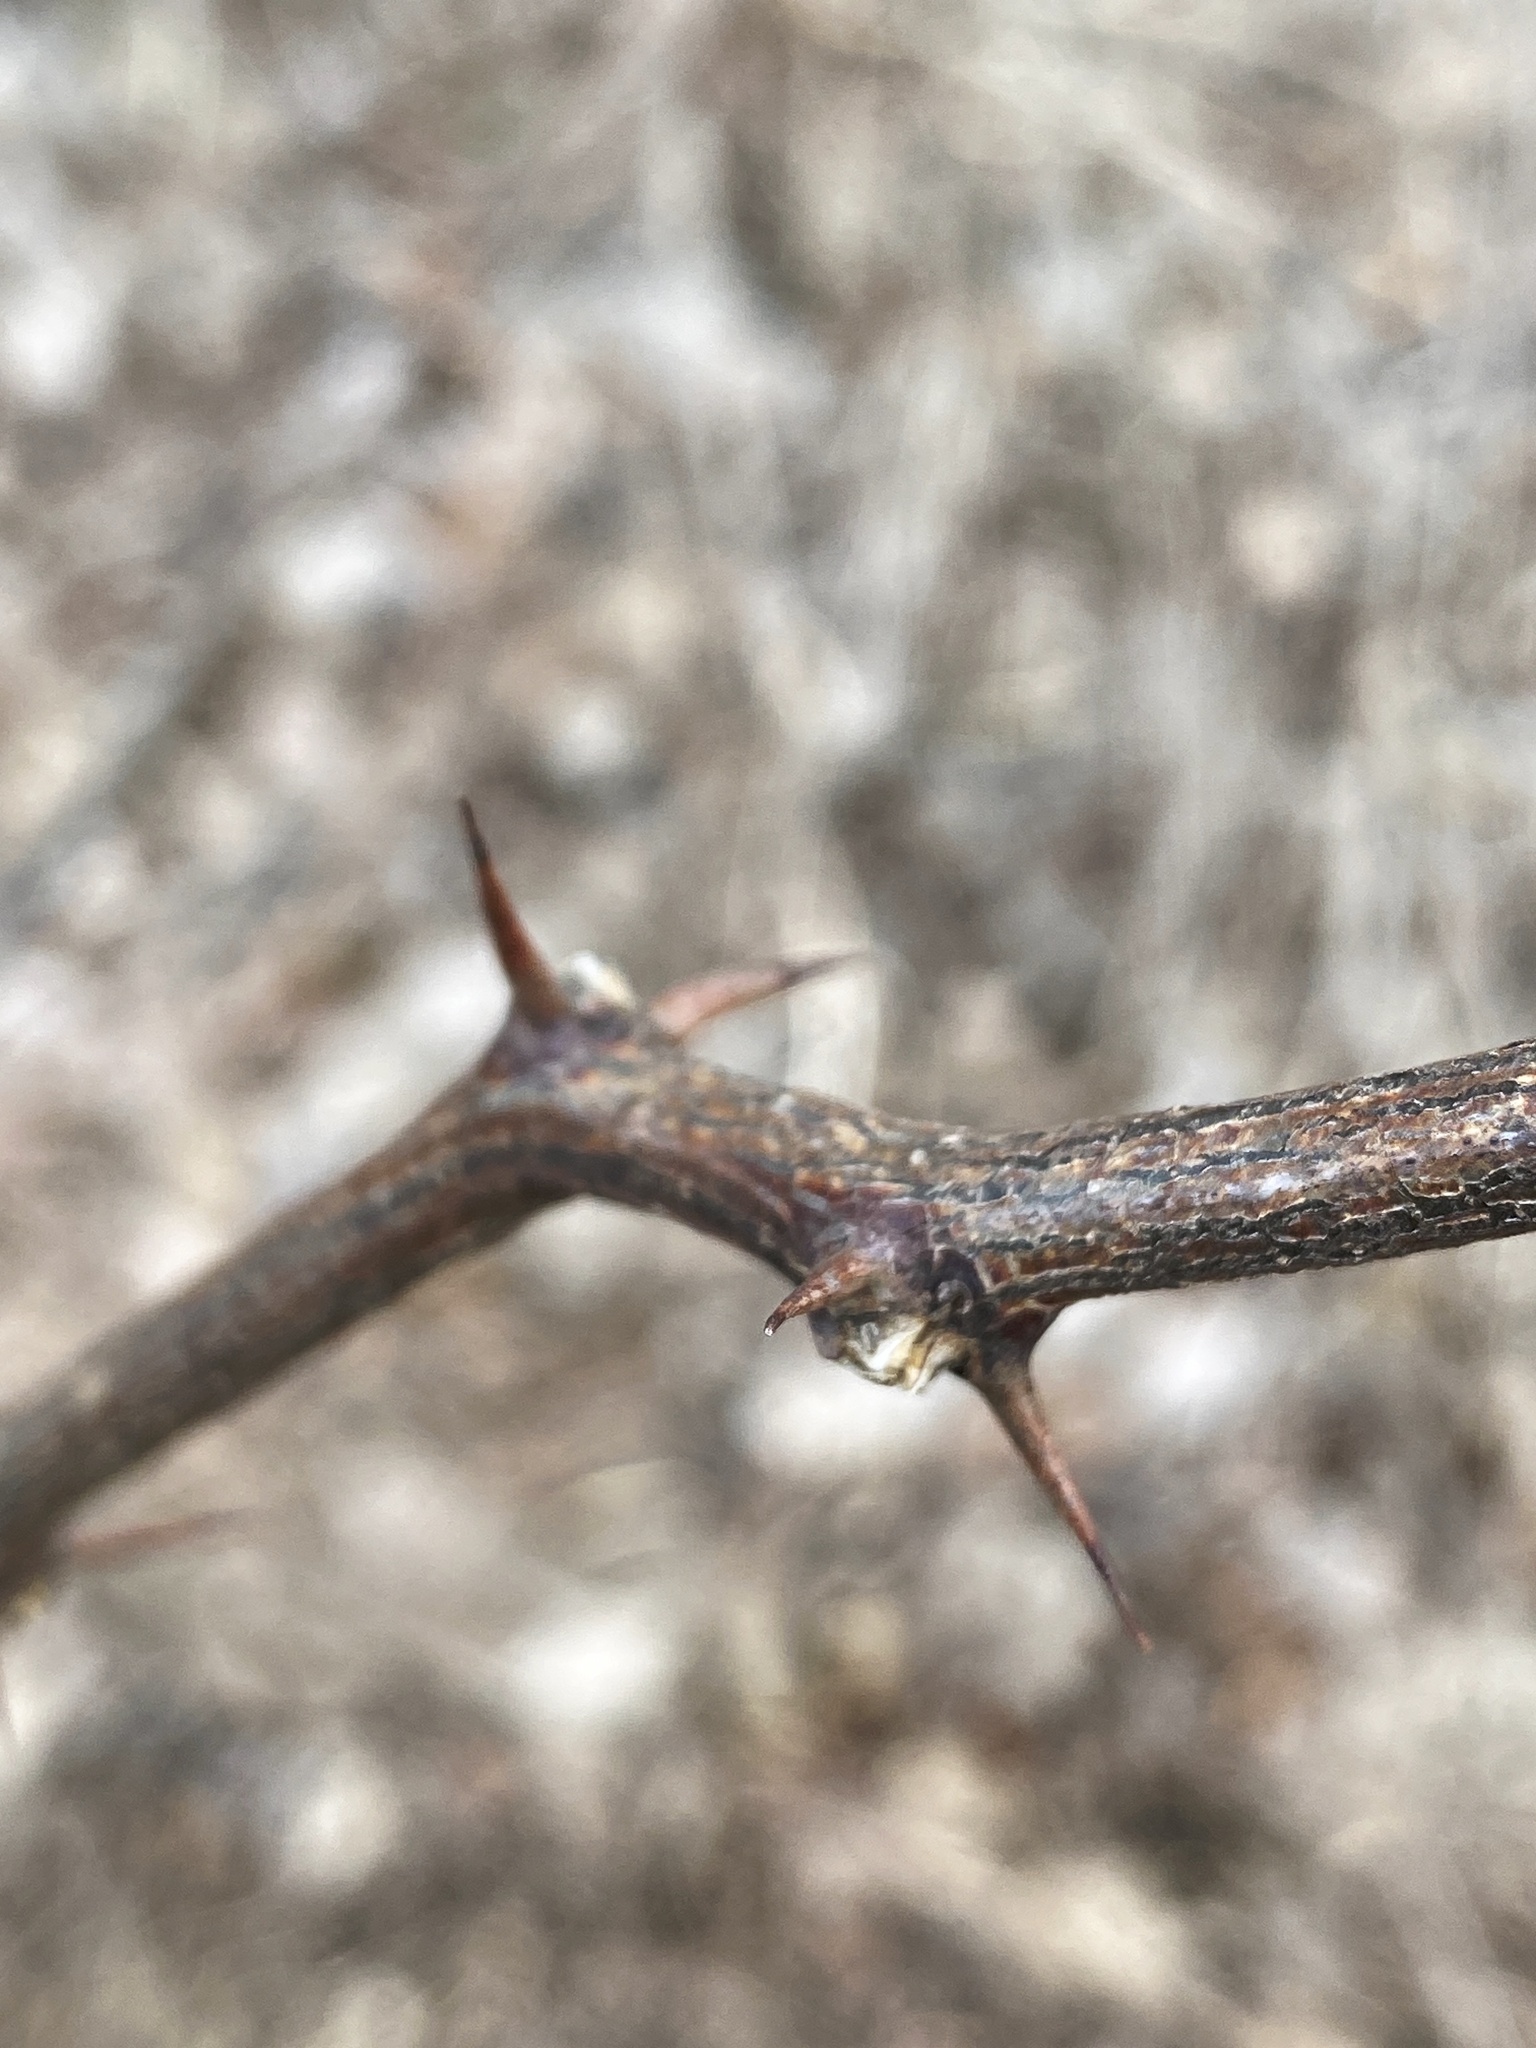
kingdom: Animalia
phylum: Arthropoda
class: Insecta
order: Lepidoptera
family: Tortricidae
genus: Ecdytolopha
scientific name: Ecdytolopha insiticiana
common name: Locust twig borer moth
